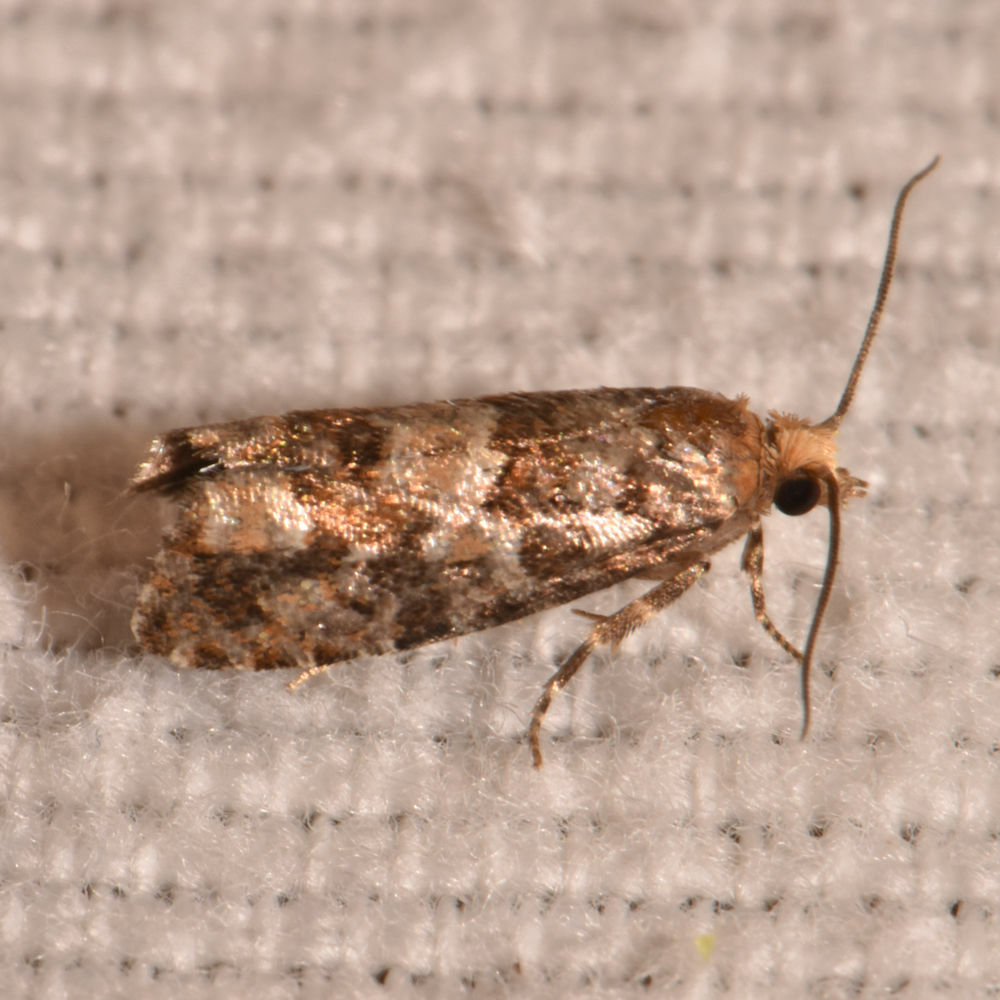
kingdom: Animalia
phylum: Arthropoda
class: Insecta
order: Lepidoptera
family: Tortricidae
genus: Eucopina
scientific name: Eucopina tocullionana
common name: White pinecone borer moth
